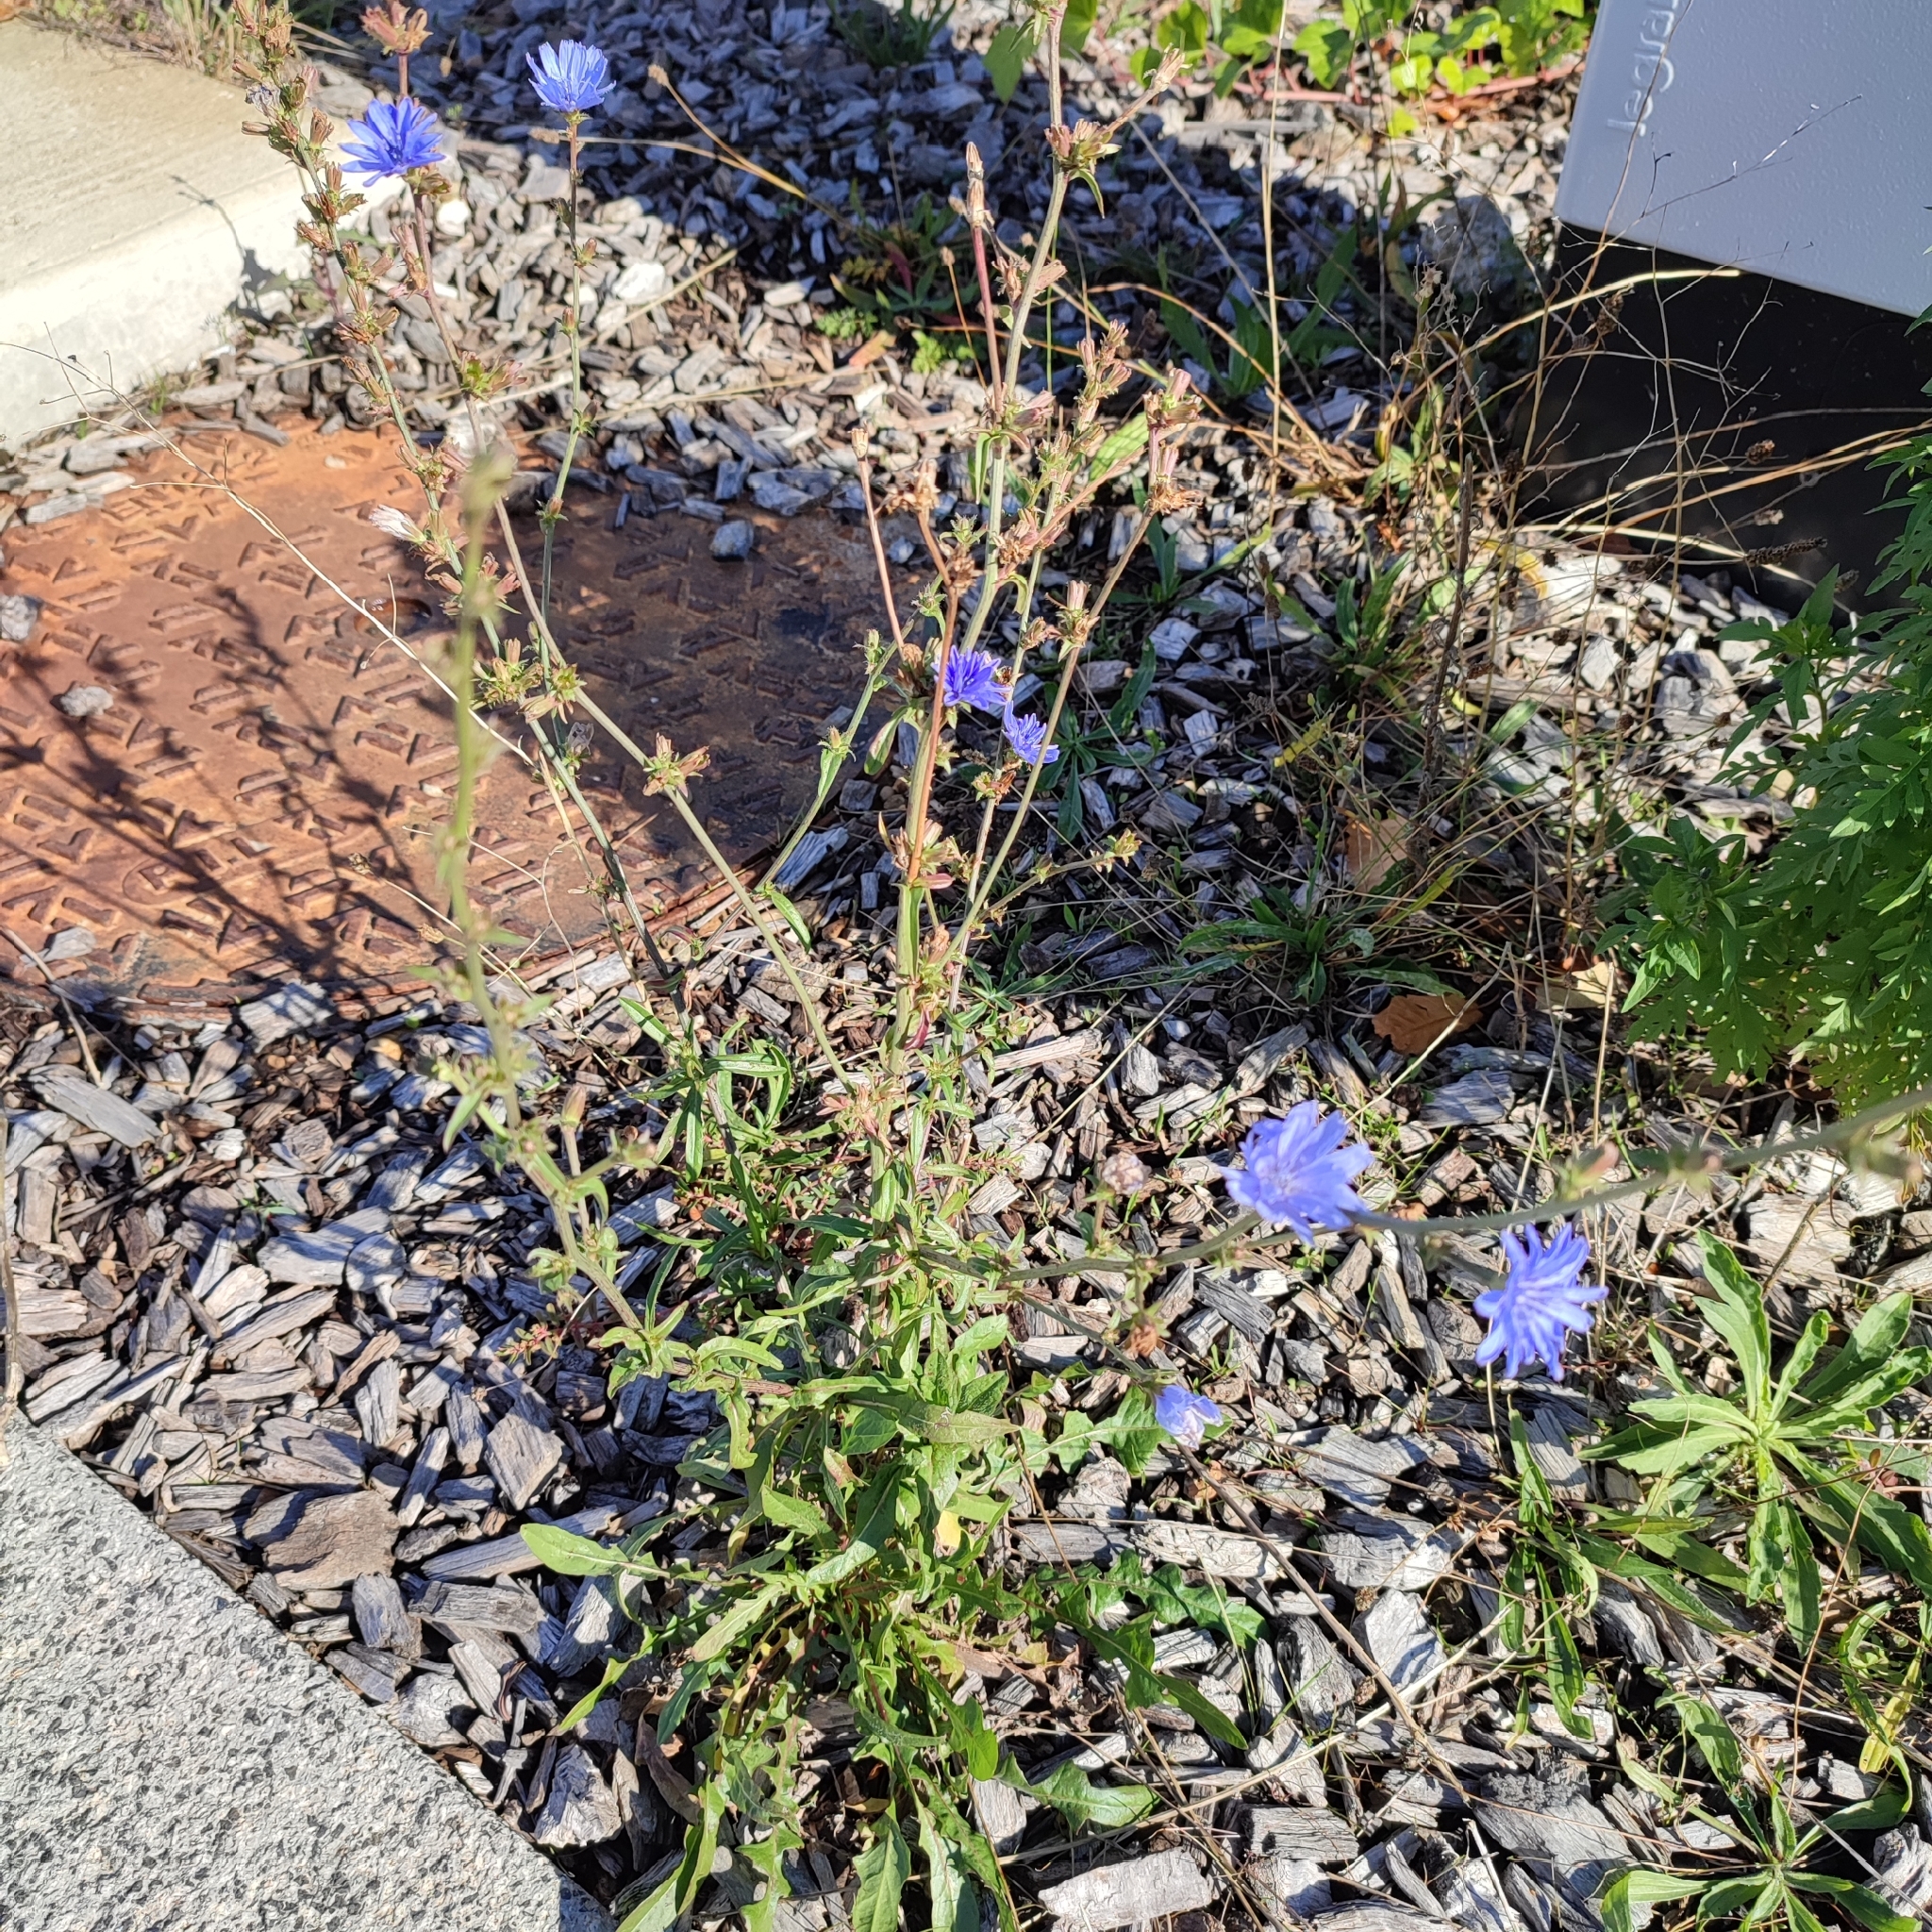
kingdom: Plantae
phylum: Tracheophyta
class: Magnoliopsida
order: Asterales
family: Asteraceae
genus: Cichorium
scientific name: Cichorium intybus
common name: Chicory
